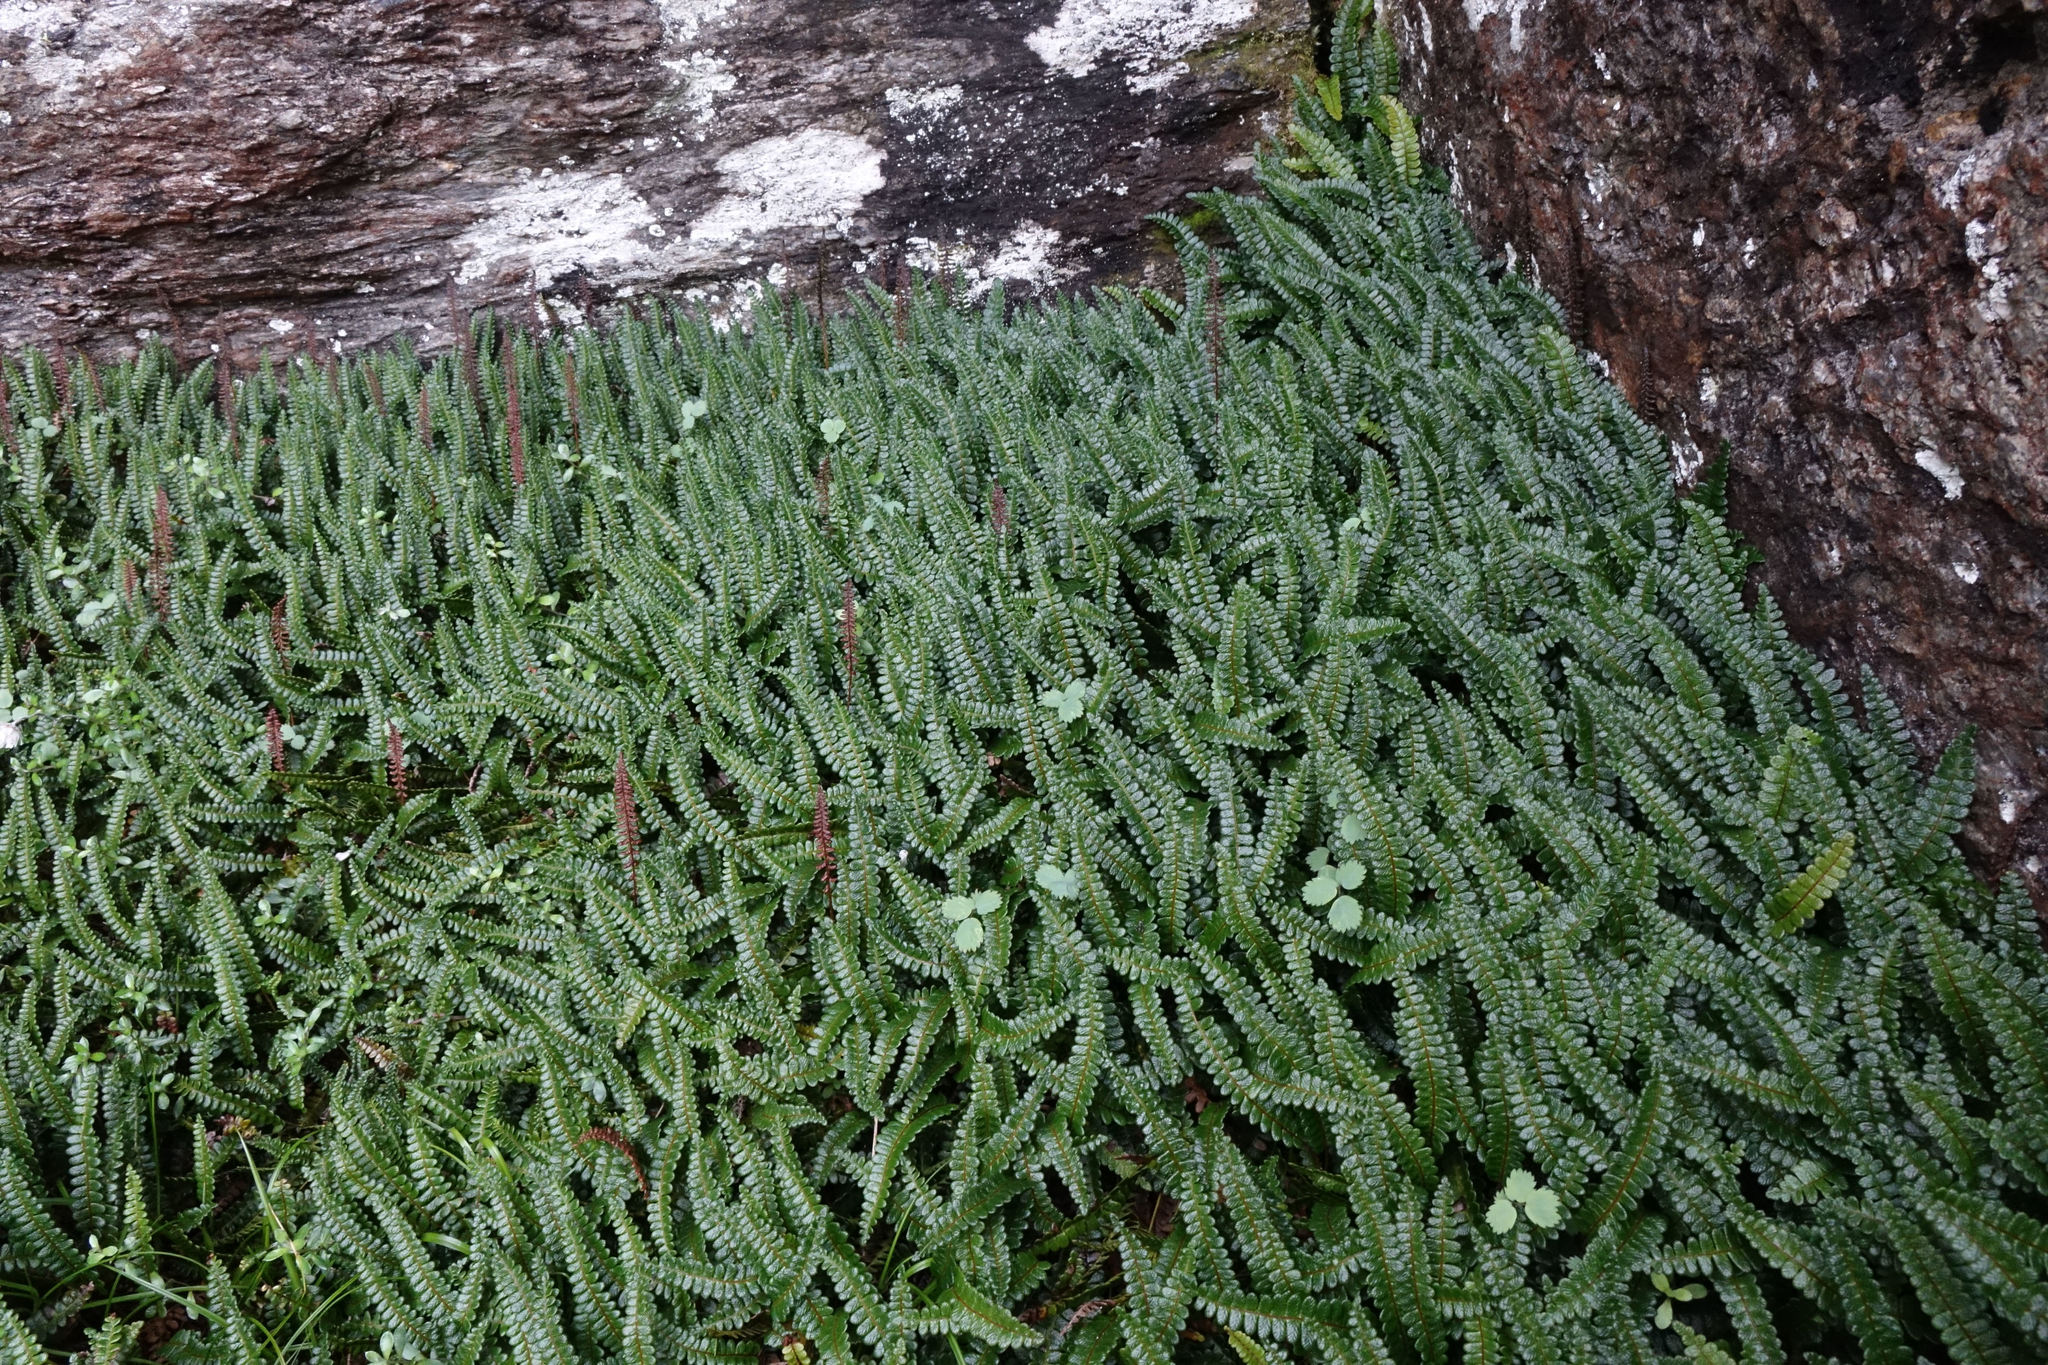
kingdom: Plantae
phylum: Tracheophyta
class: Polypodiopsida
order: Polypodiales
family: Blechnaceae
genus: Austroblechnum
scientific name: Austroblechnum penna-marina
